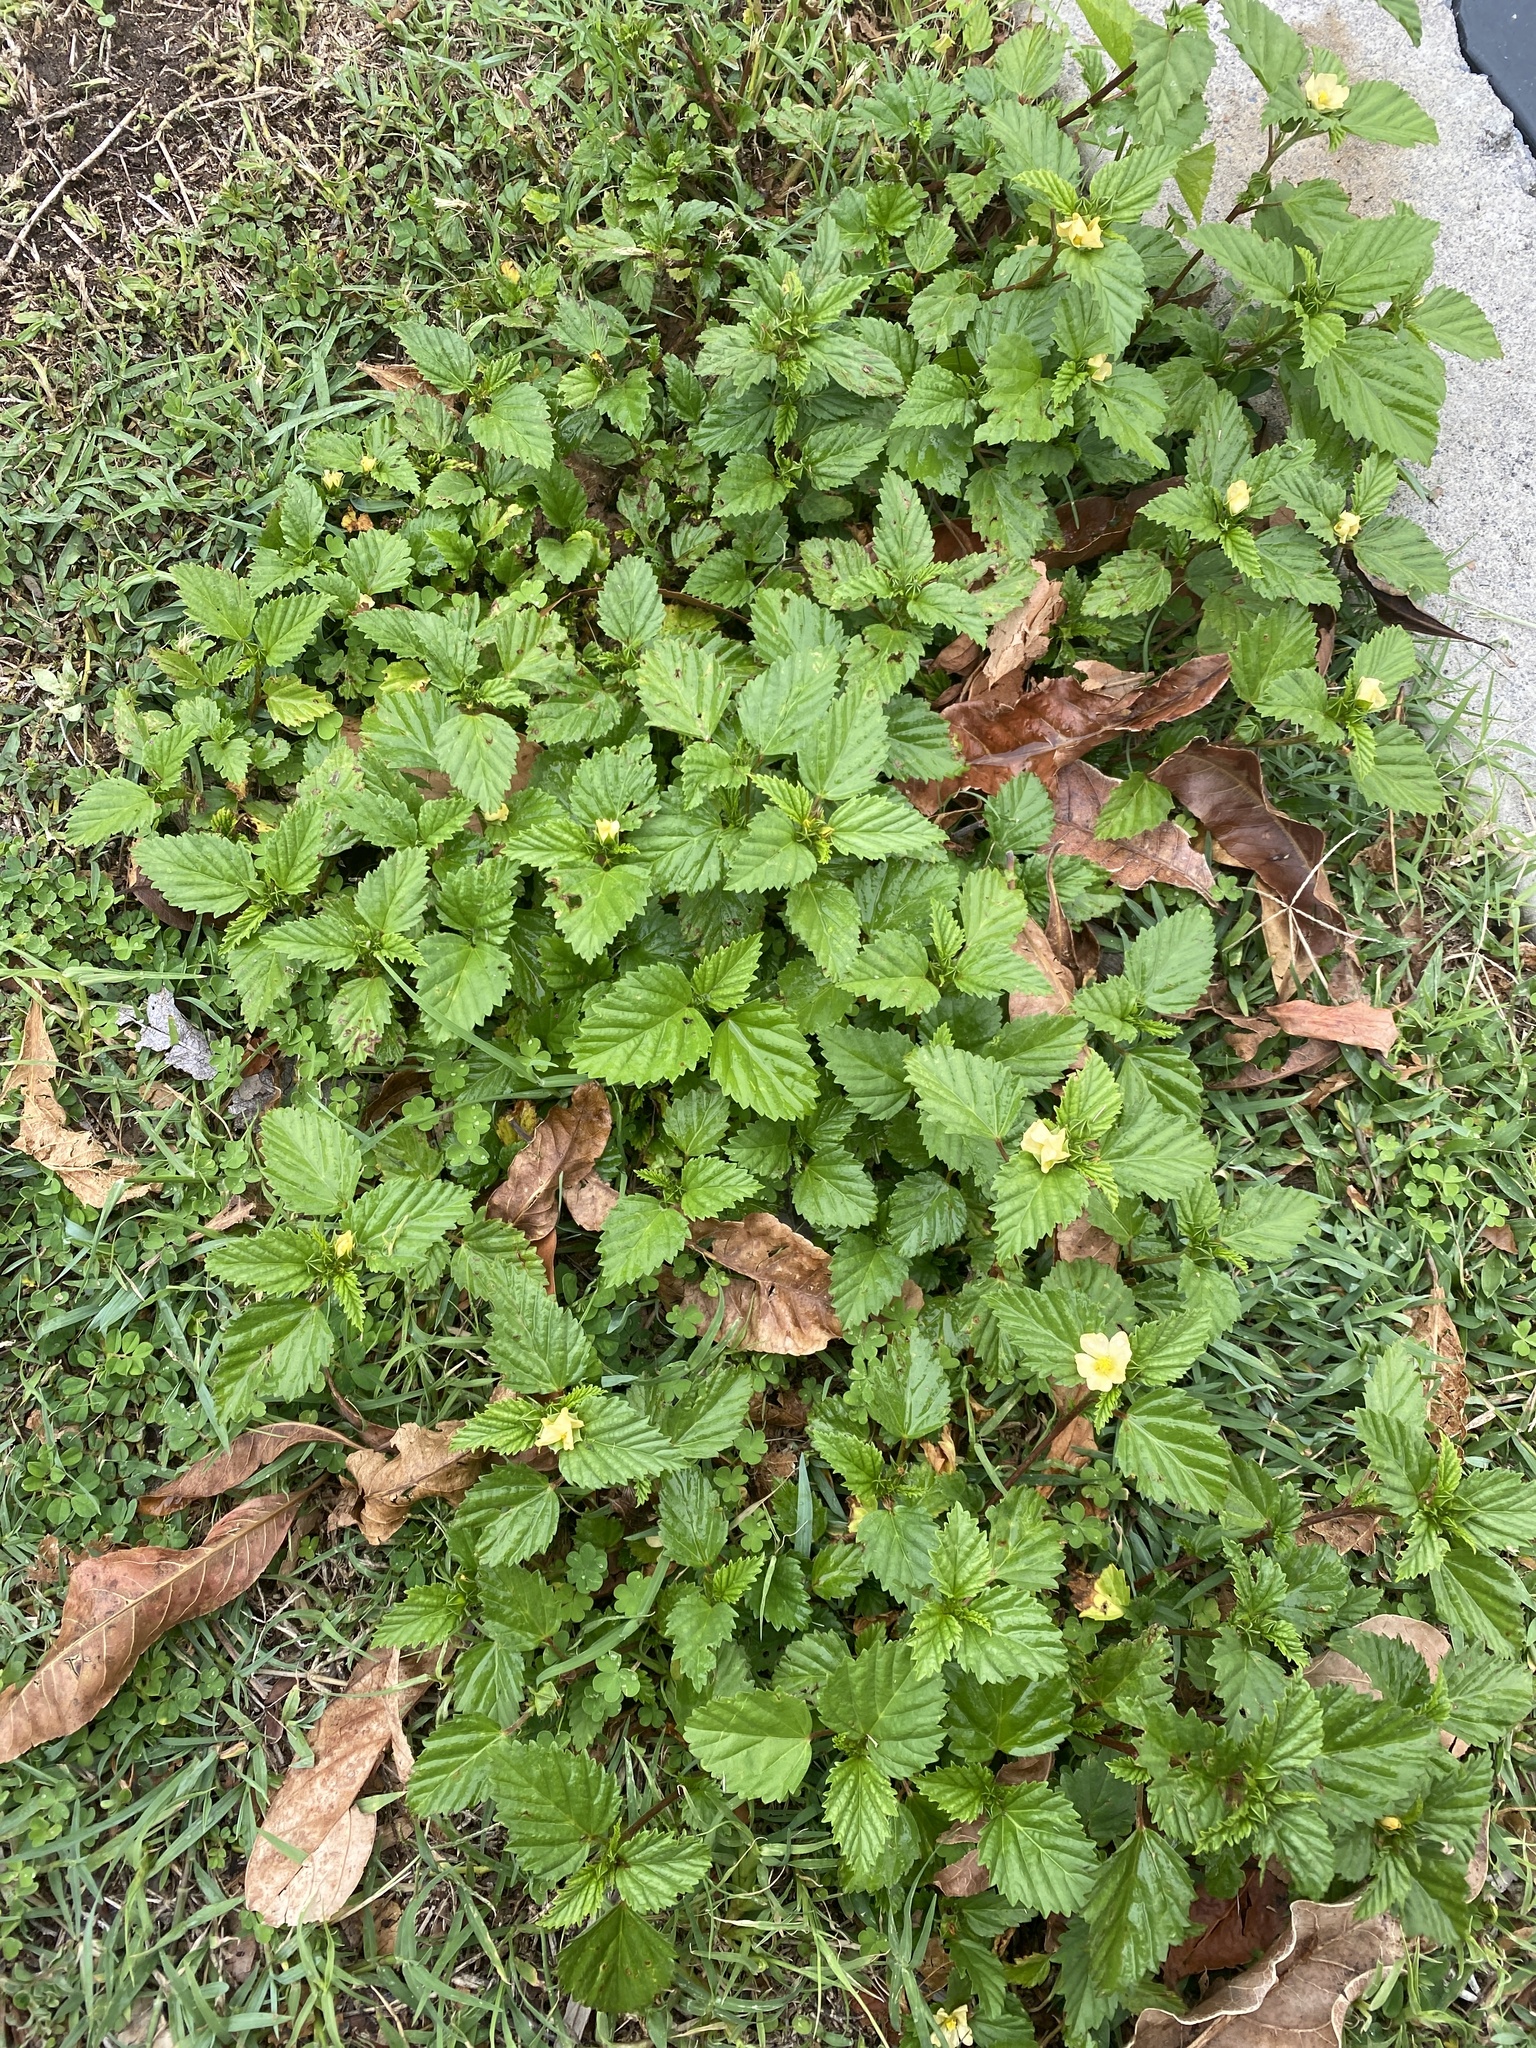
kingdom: Plantae
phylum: Tracheophyta
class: Magnoliopsida
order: Malvales
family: Malvaceae
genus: Malvastrum
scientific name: Malvastrum coromandelianum
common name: Threelobe false mallow
